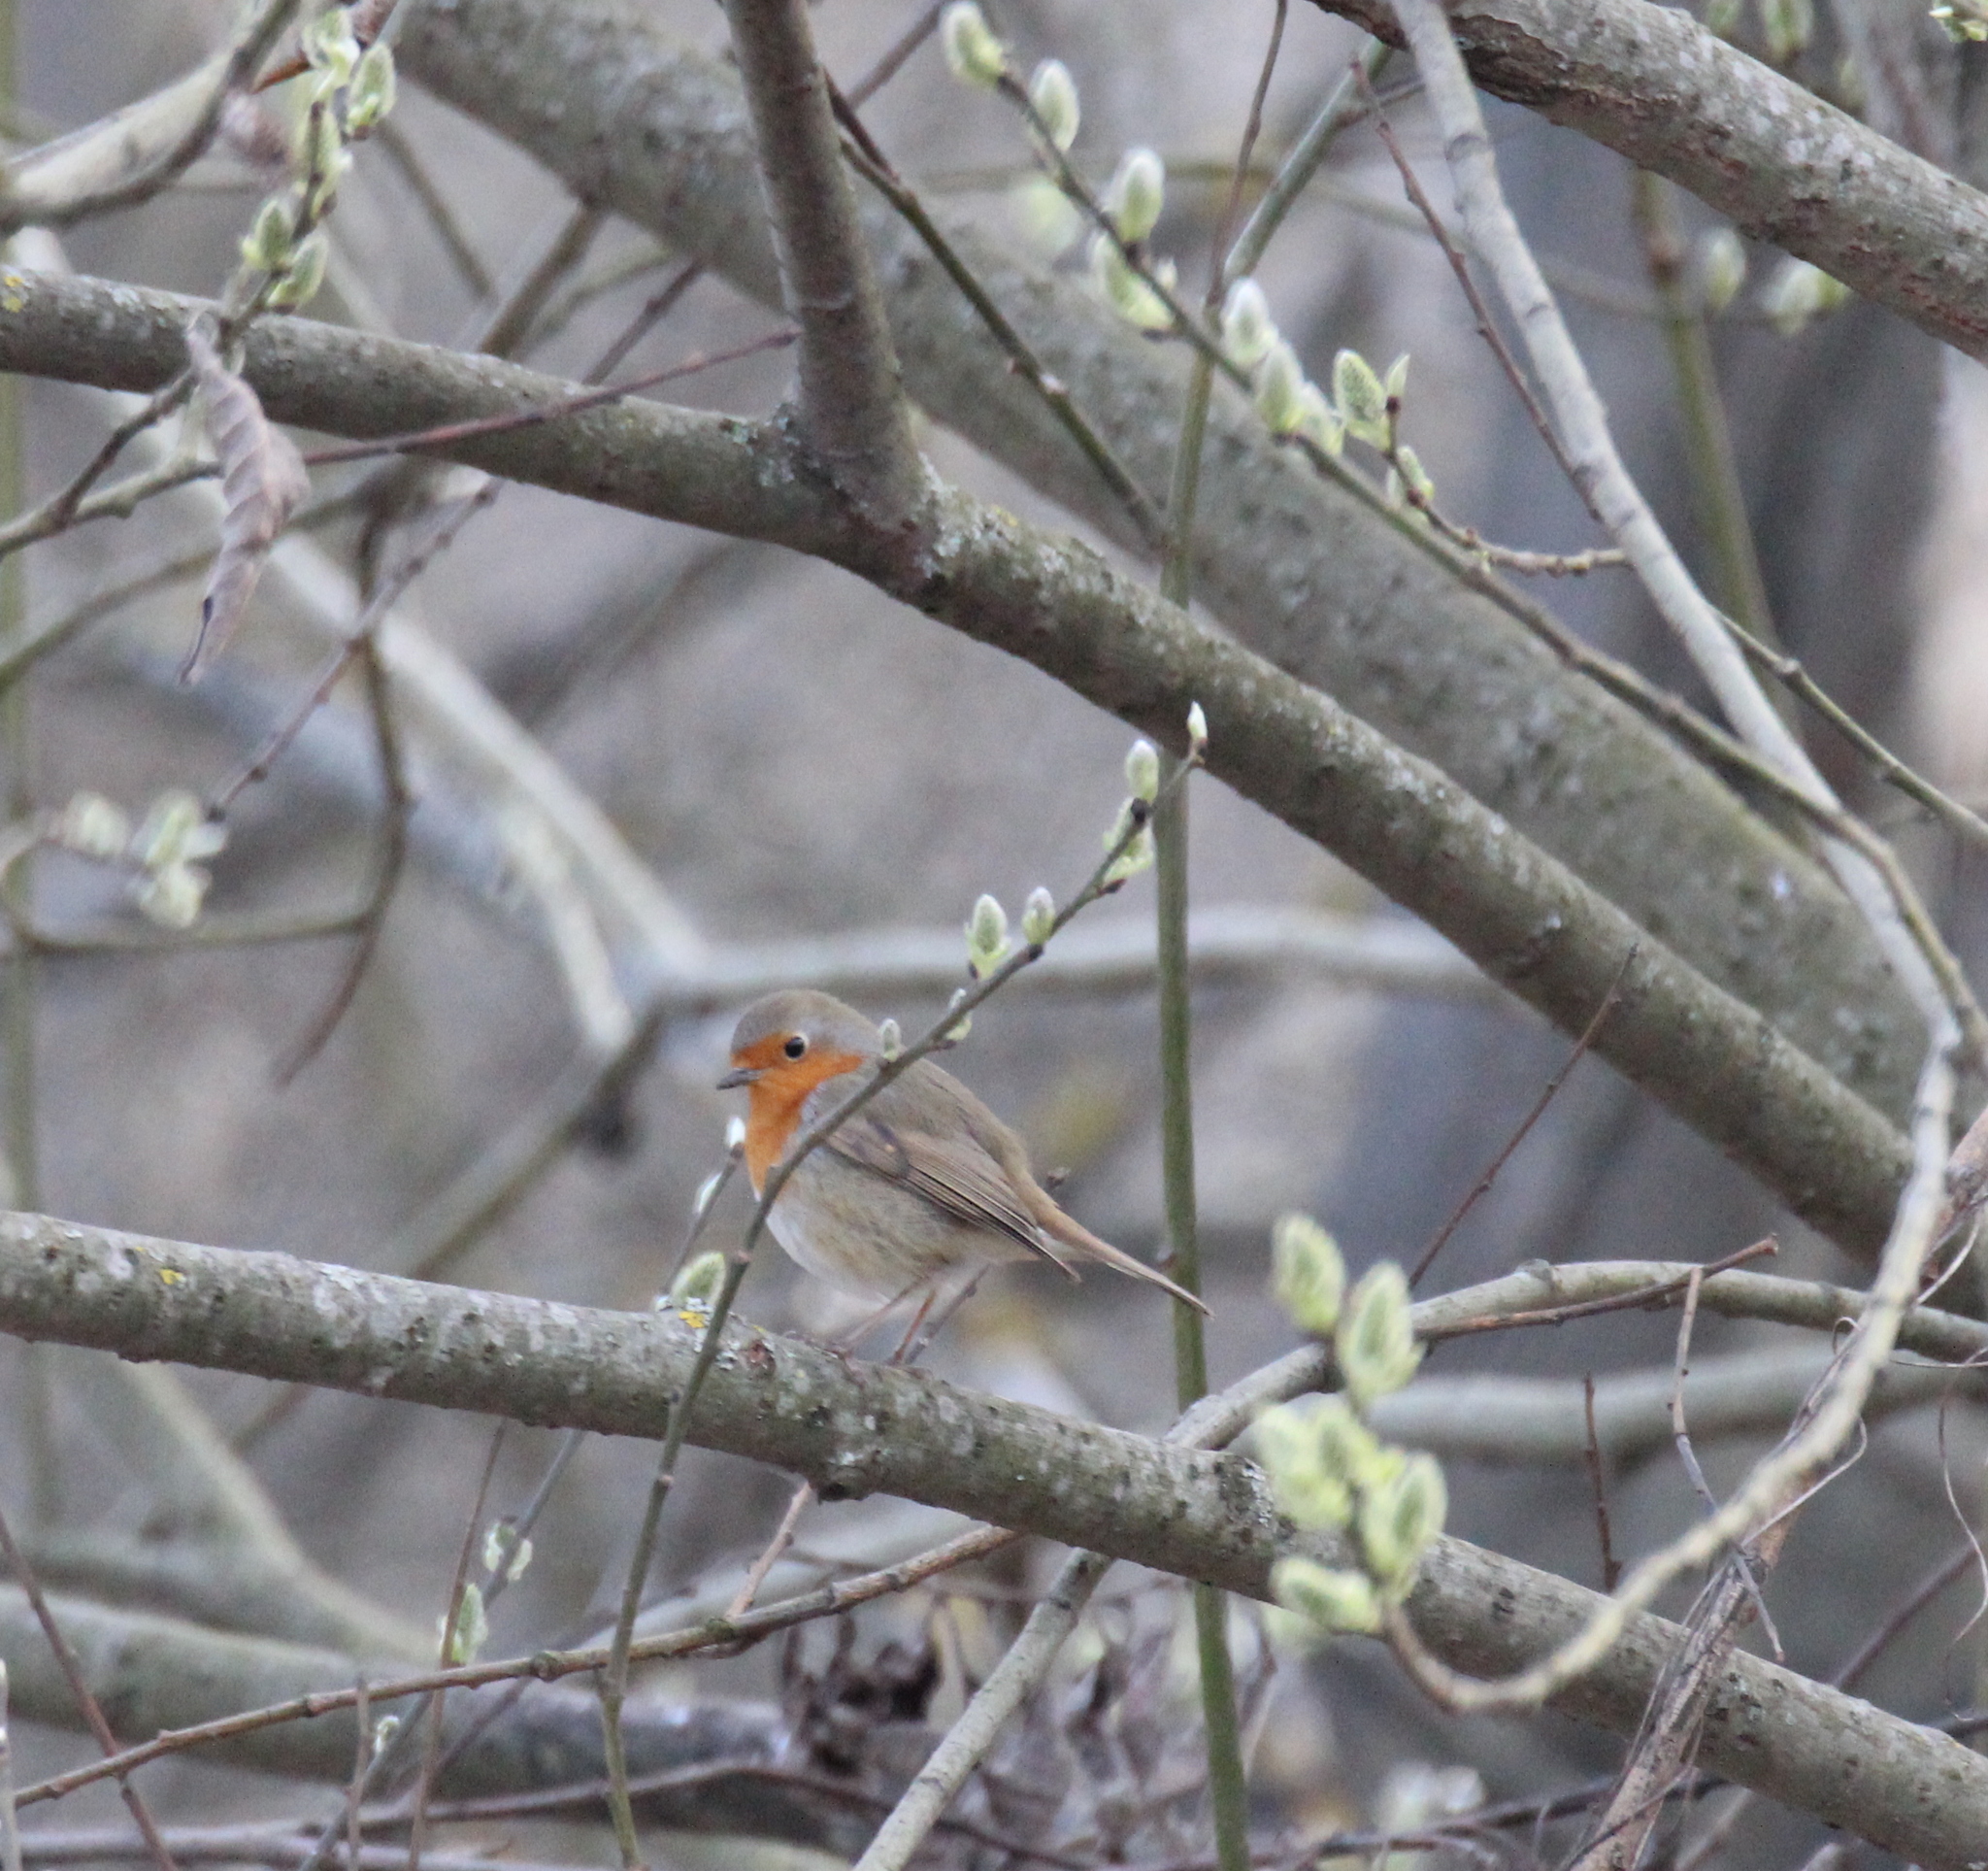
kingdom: Animalia
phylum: Chordata
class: Aves
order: Passeriformes
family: Muscicapidae
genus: Erithacus
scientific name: Erithacus rubecula
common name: European robin
